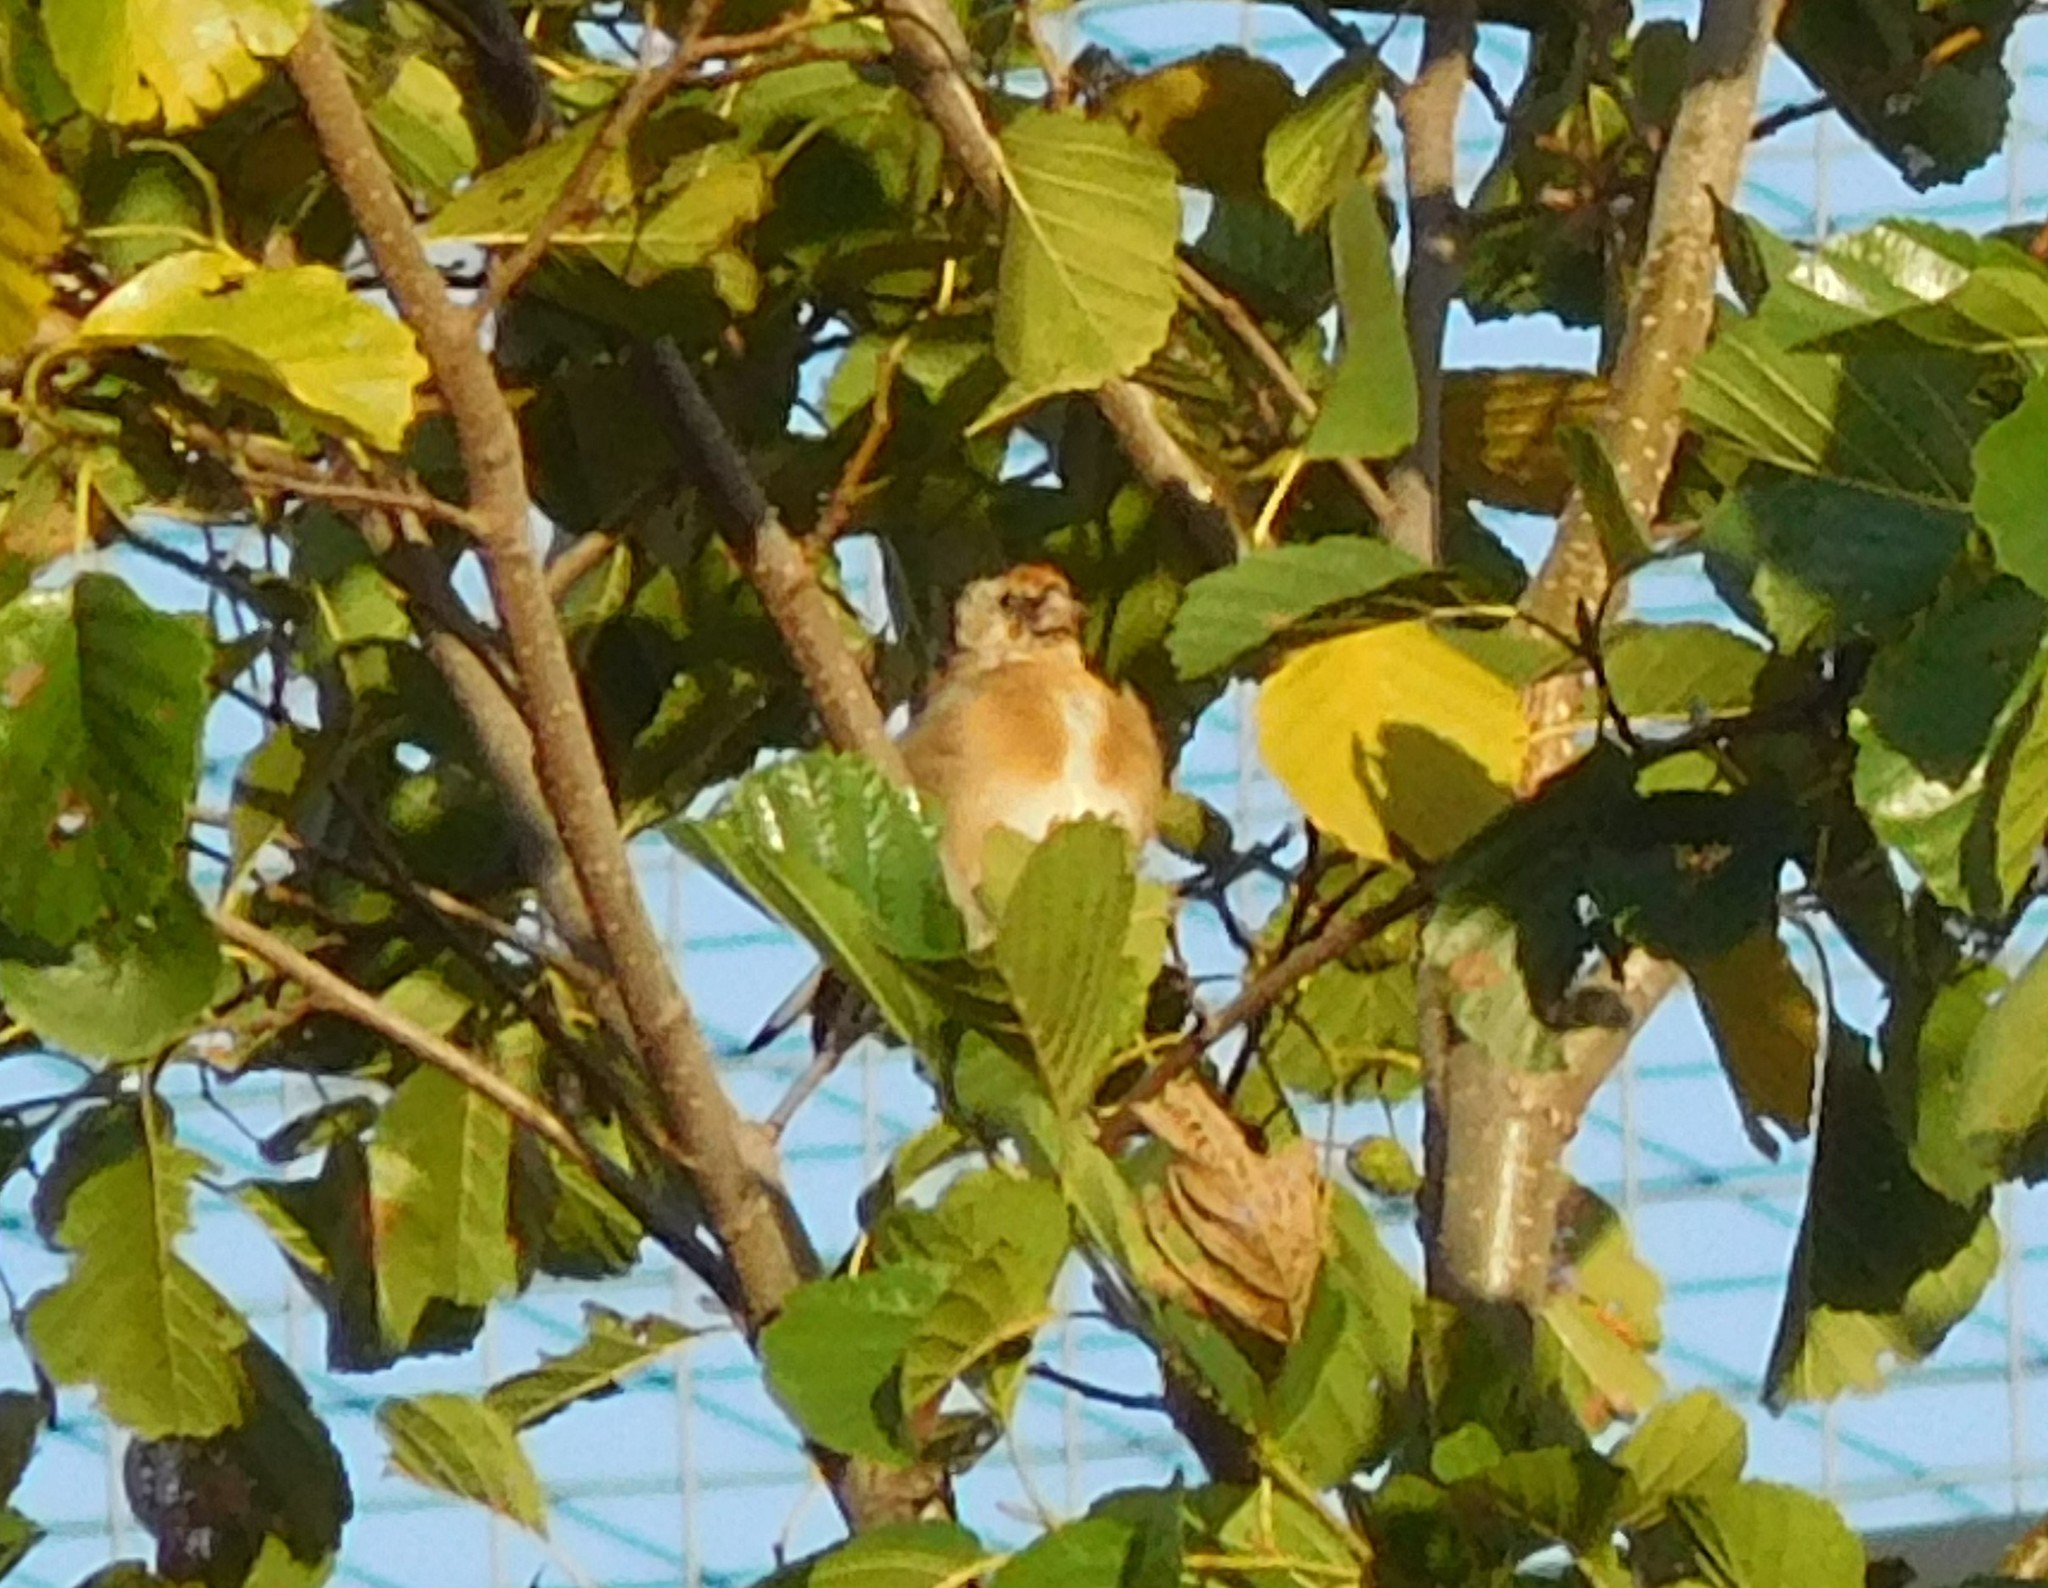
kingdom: Animalia
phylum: Chordata
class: Aves
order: Passeriformes
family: Fringillidae
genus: Carduelis
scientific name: Carduelis carduelis
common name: European goldfinch
